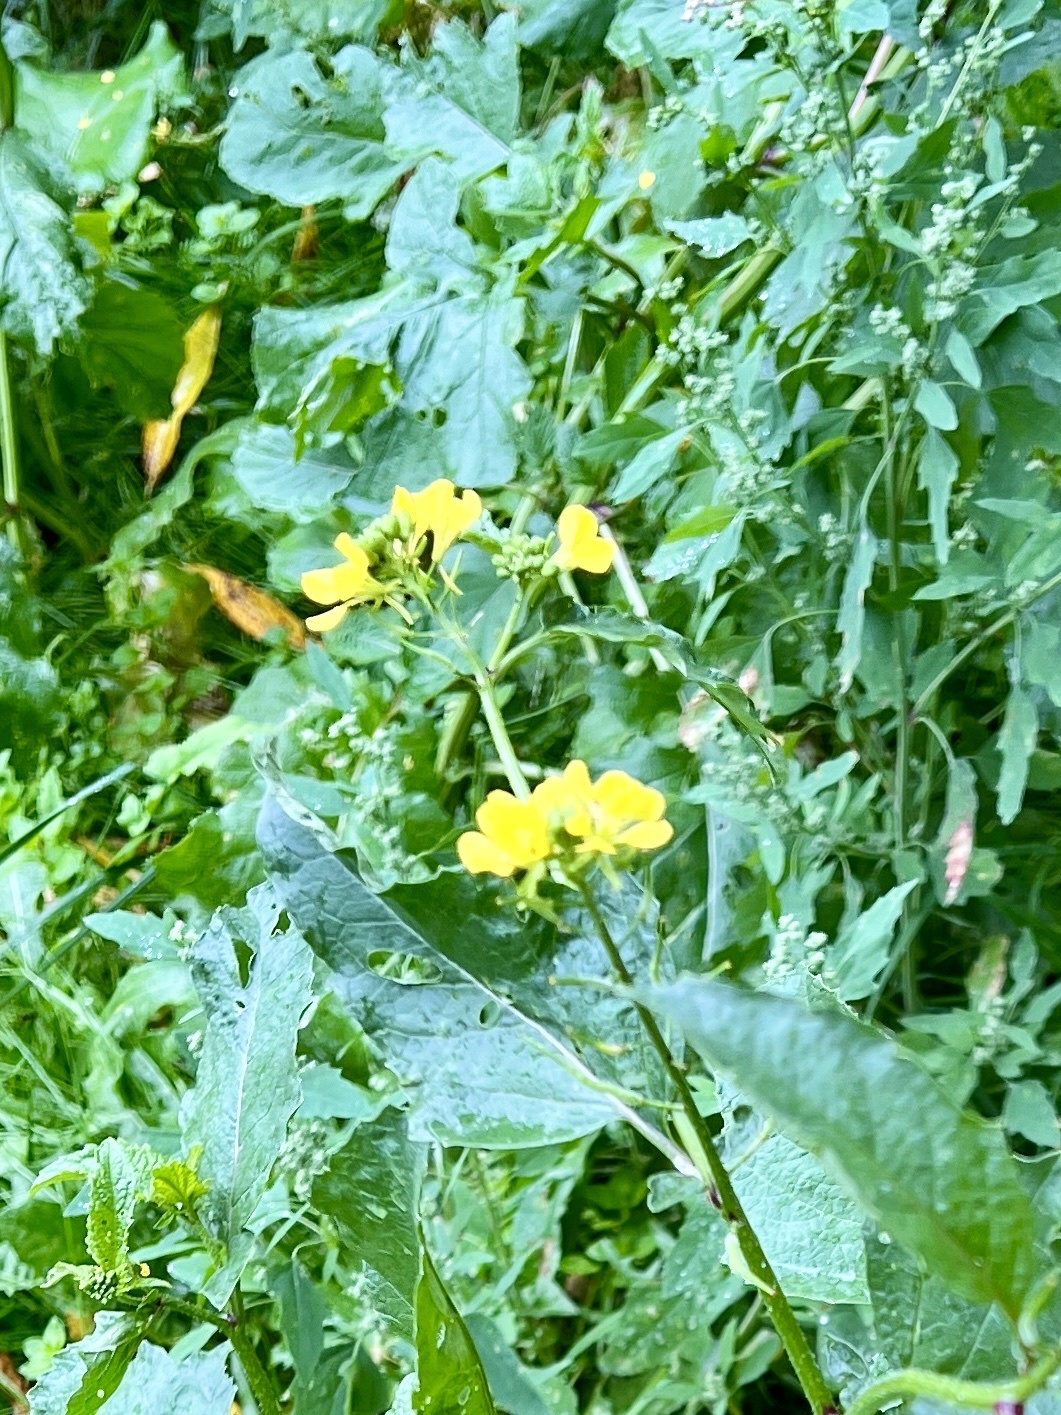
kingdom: Plantae
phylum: Tracheophyta
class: Magnoliopsida
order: Brassicales
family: Brassicaceae
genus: Sinapis
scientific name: Sinapis arvensis
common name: Charlock
